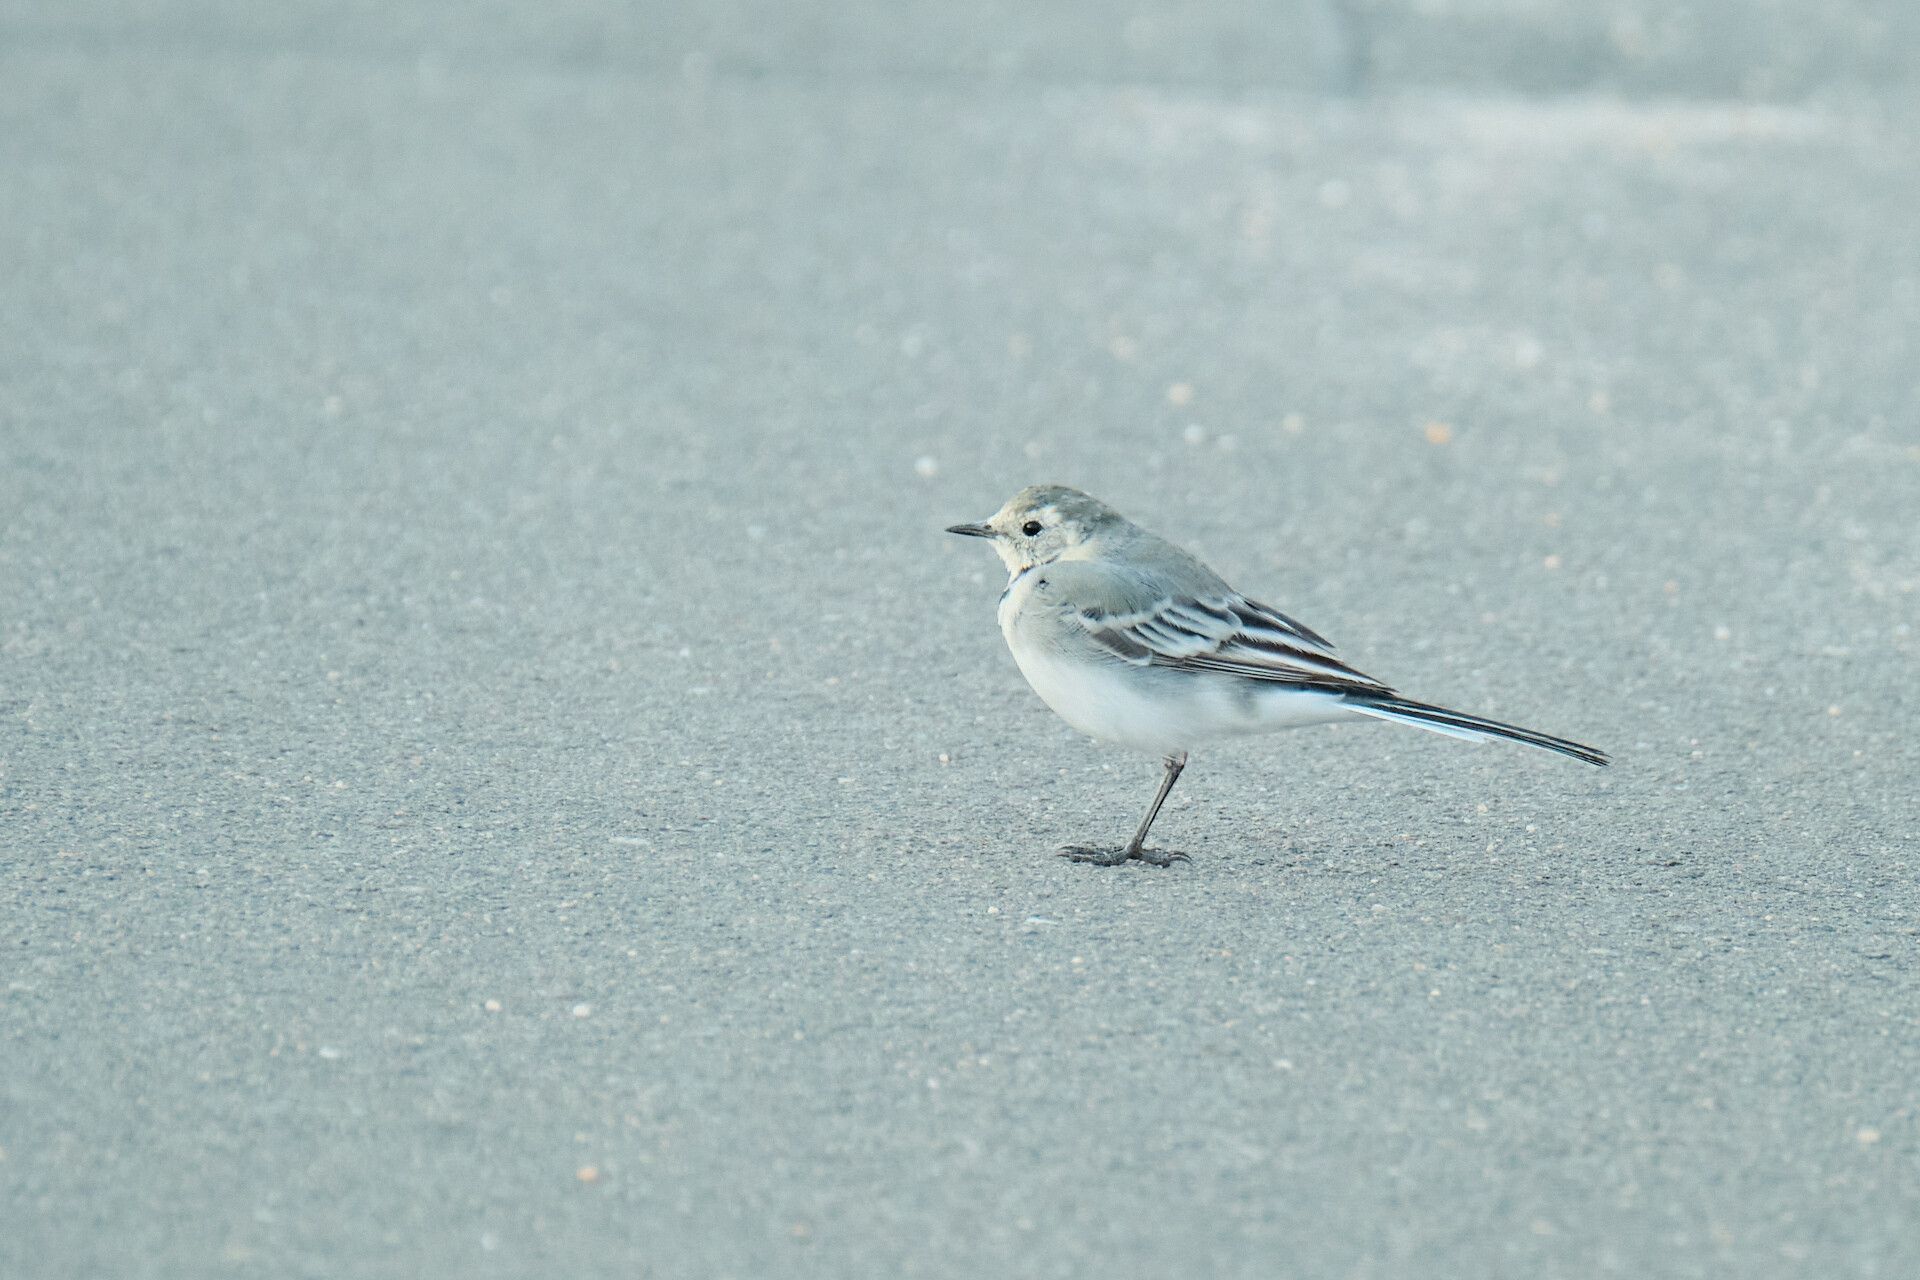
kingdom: Animalia
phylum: Chordata
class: Aves
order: Passeriformes
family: Motacillidae
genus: Motacilla
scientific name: Motacilla alba
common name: White wagtail
